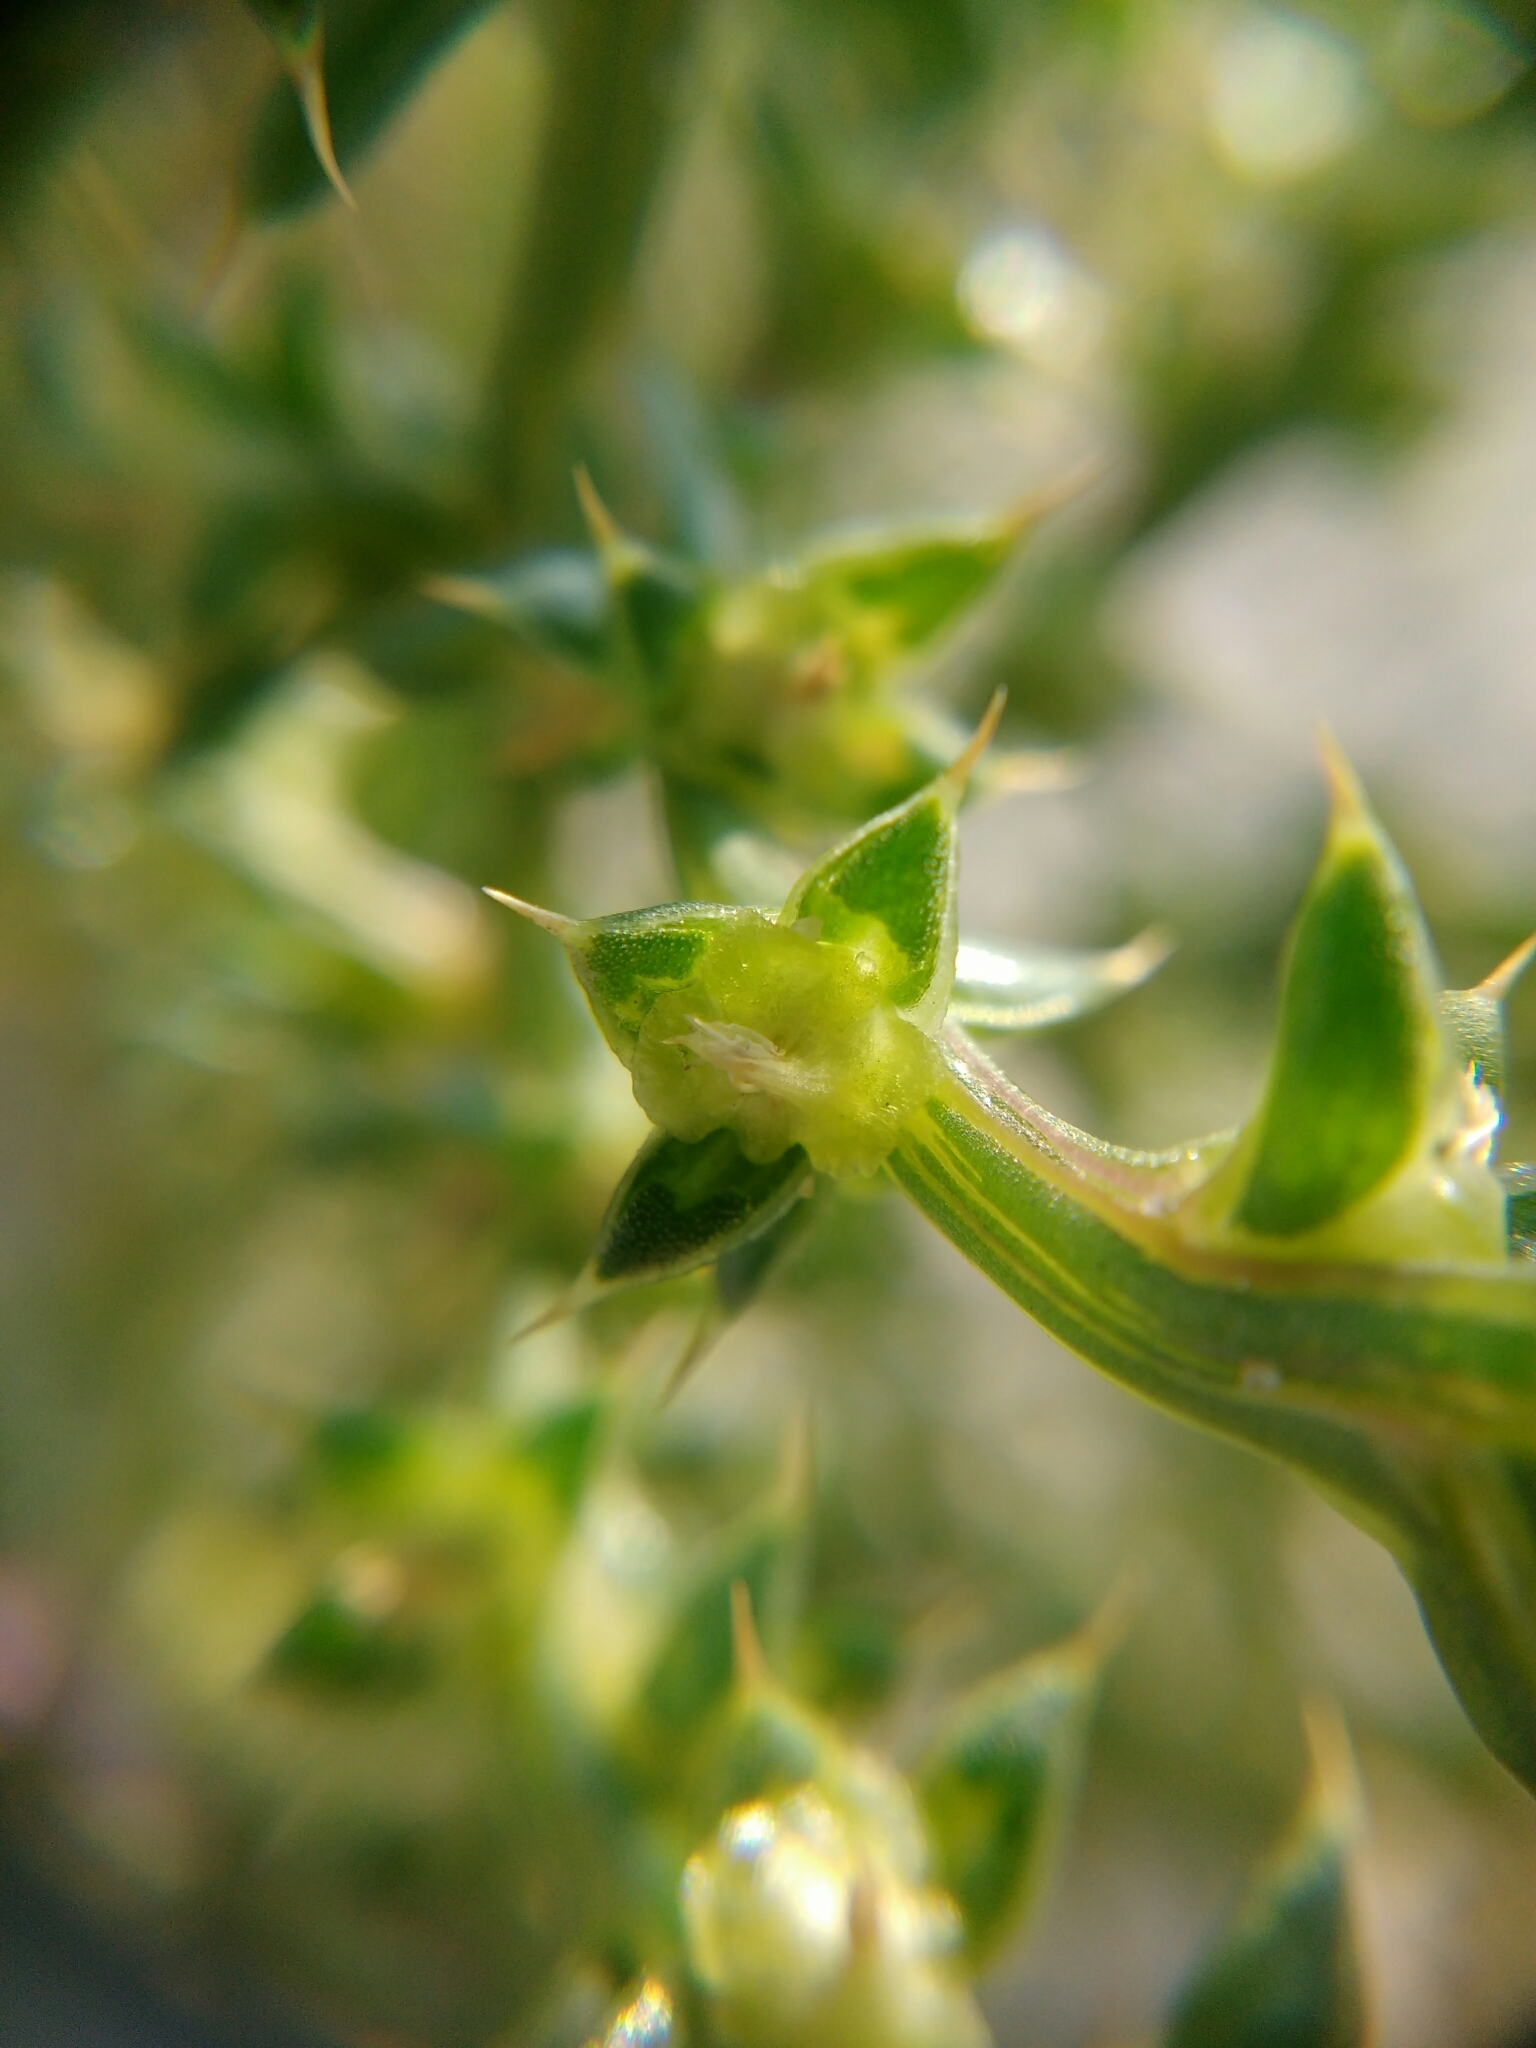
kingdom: Plantae
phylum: Tracheophyta
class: Magnoliopsida
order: Caryophyllales
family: Amaranthaceae
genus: Salsola
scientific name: Salsola kali
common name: Saltwort
